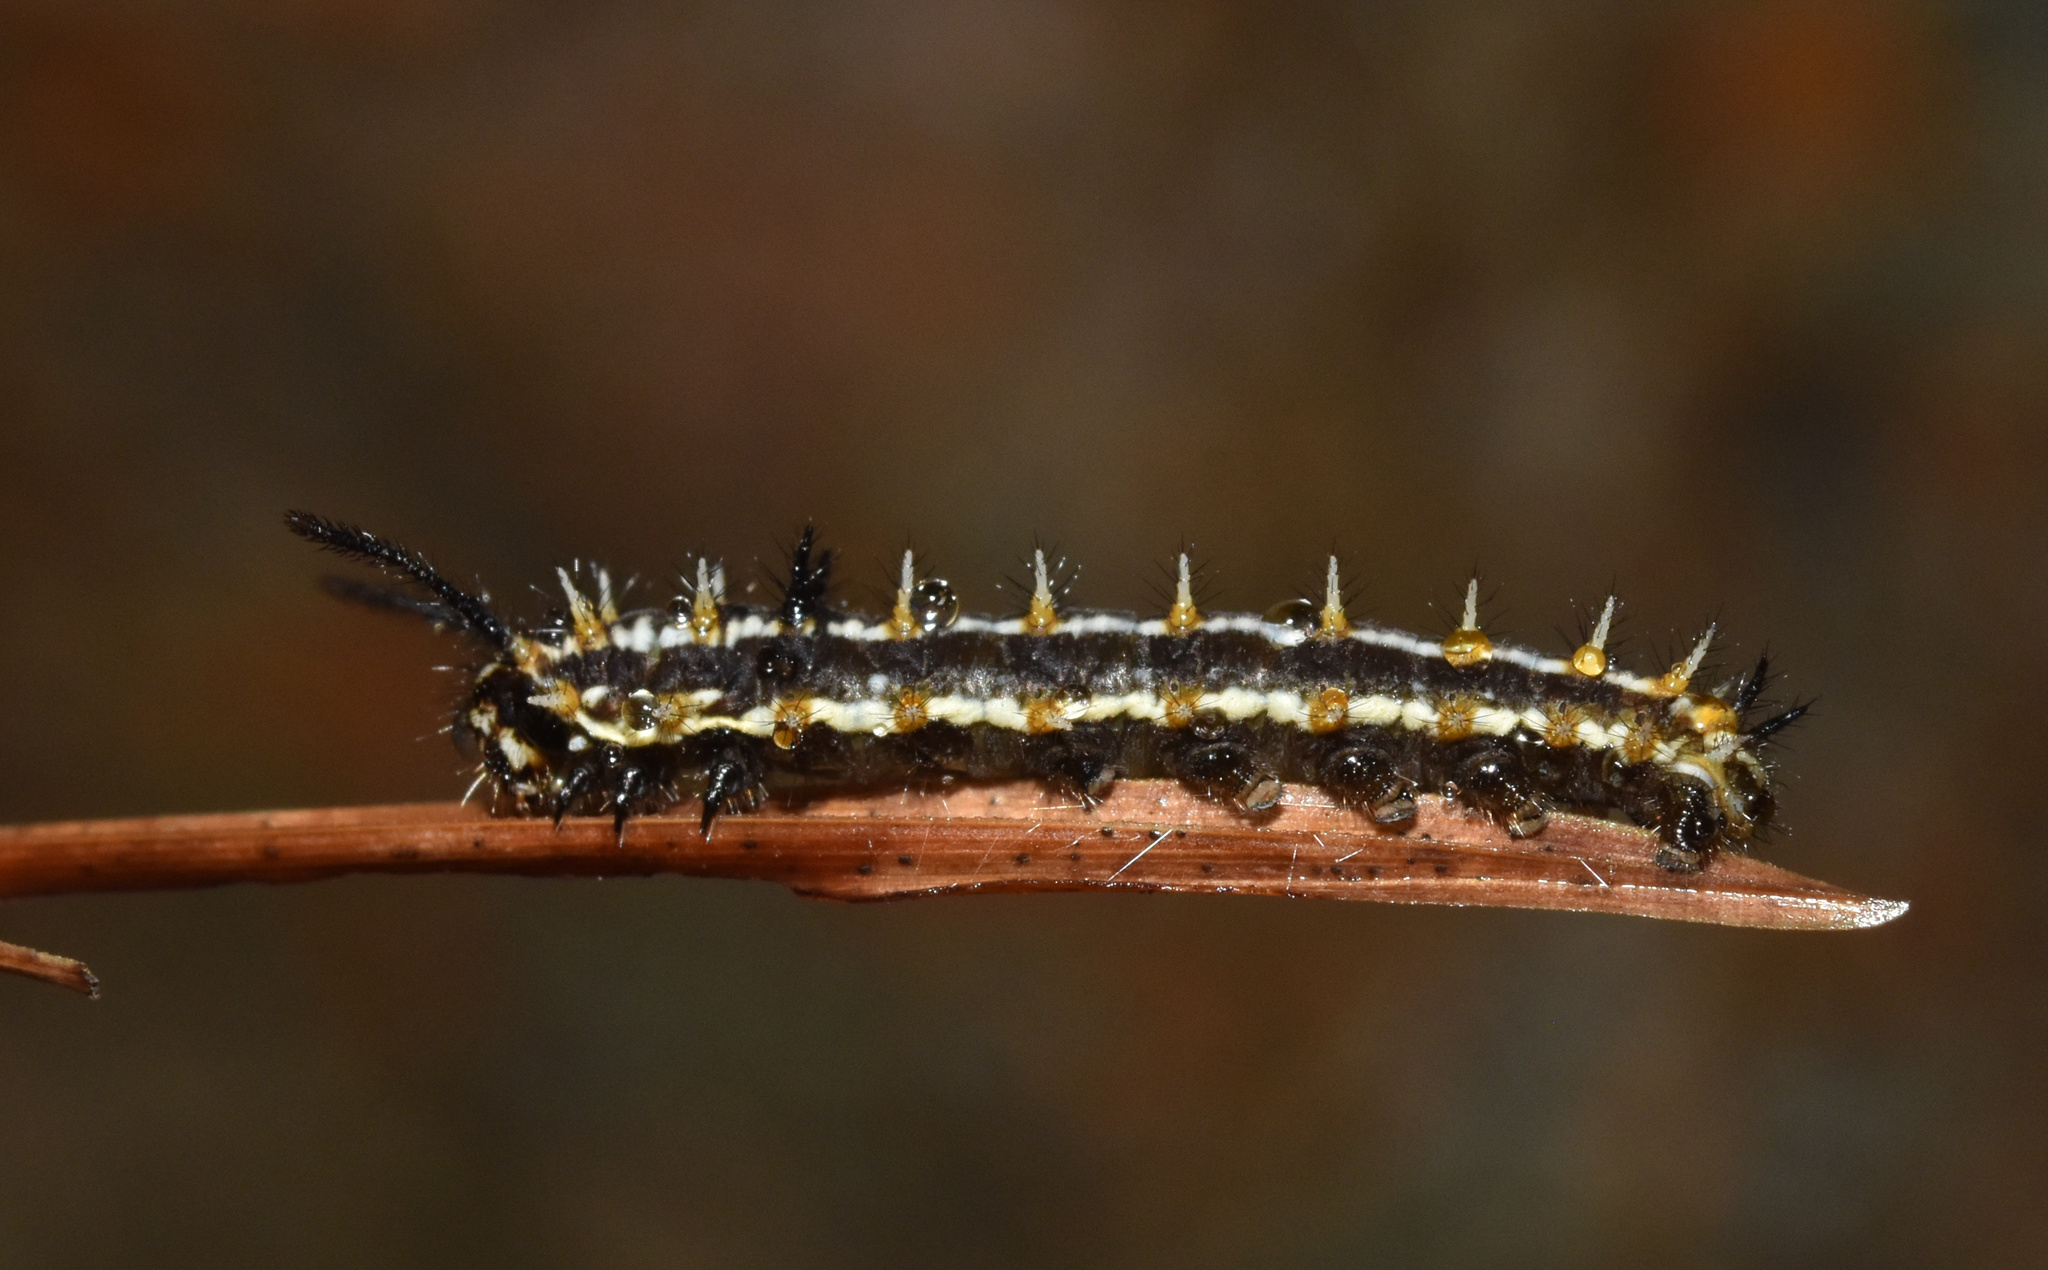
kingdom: Animalia
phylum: Arthropoda
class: Insecta
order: Lepidoptera
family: Nymphalidae
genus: Pardopsis
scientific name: Pardopsis punctatissima
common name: Polka dot
